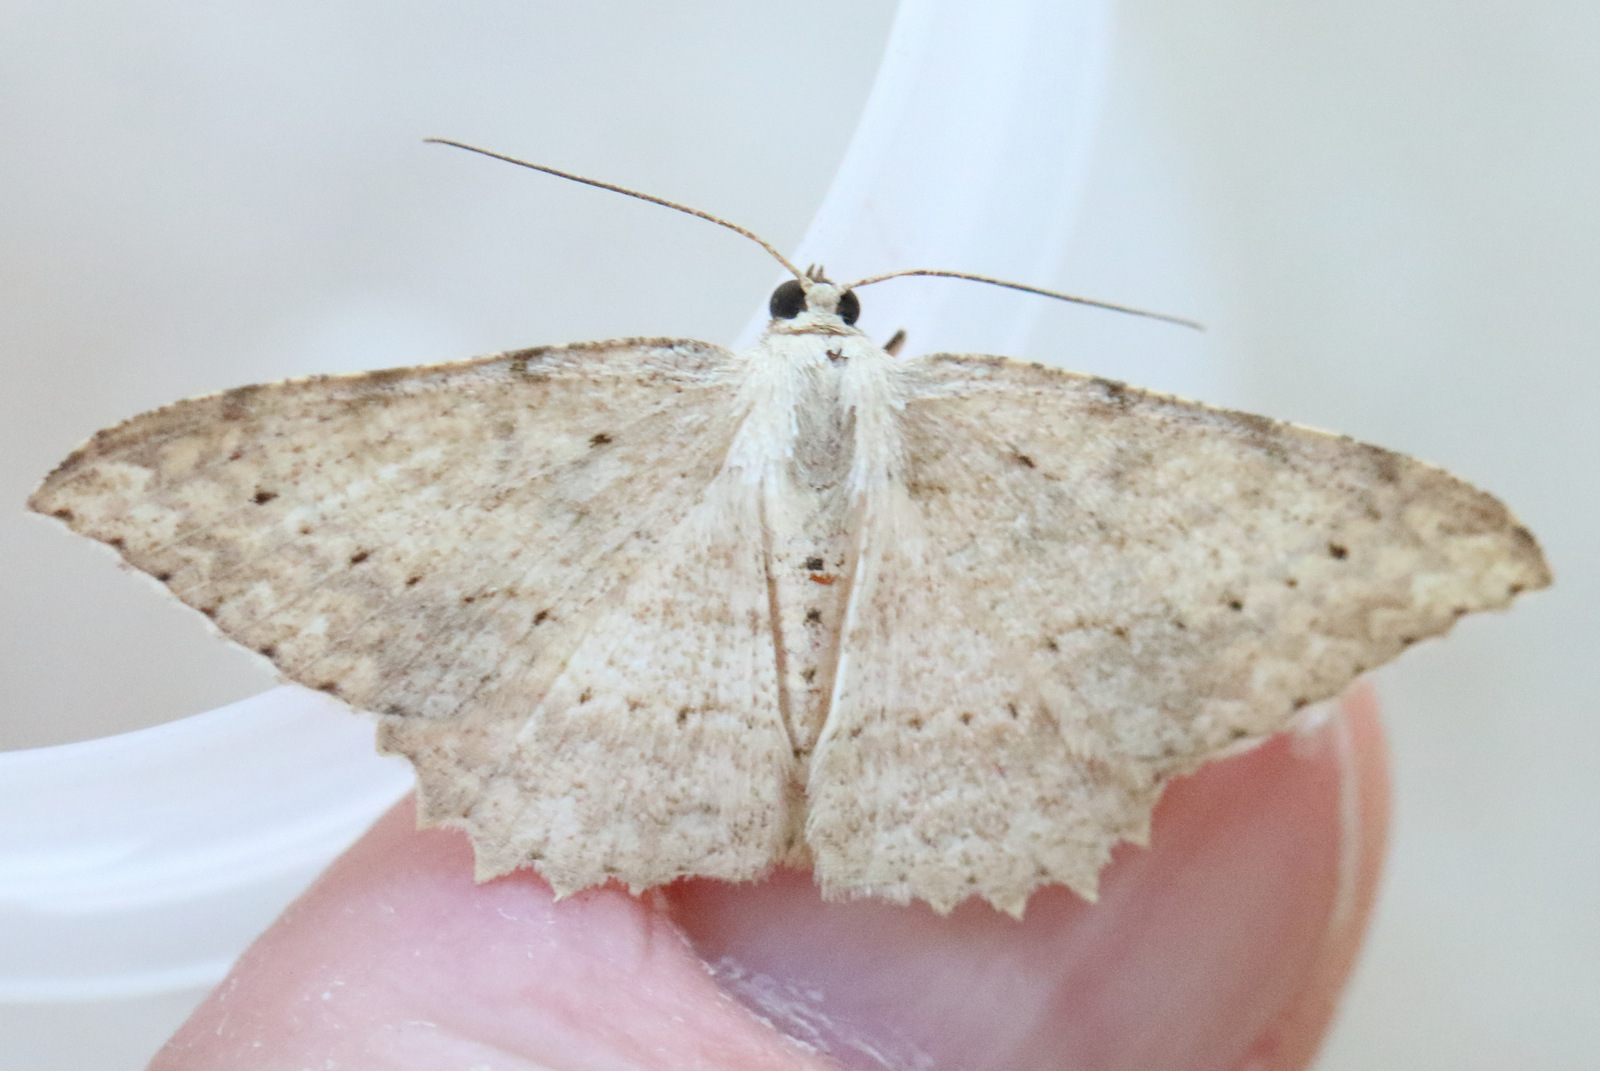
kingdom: Animalia
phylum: Arthropoda
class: Insecta
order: Lepidoptera
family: Geometridae
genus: Luxiaria
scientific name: Luxiaria ochrophara
